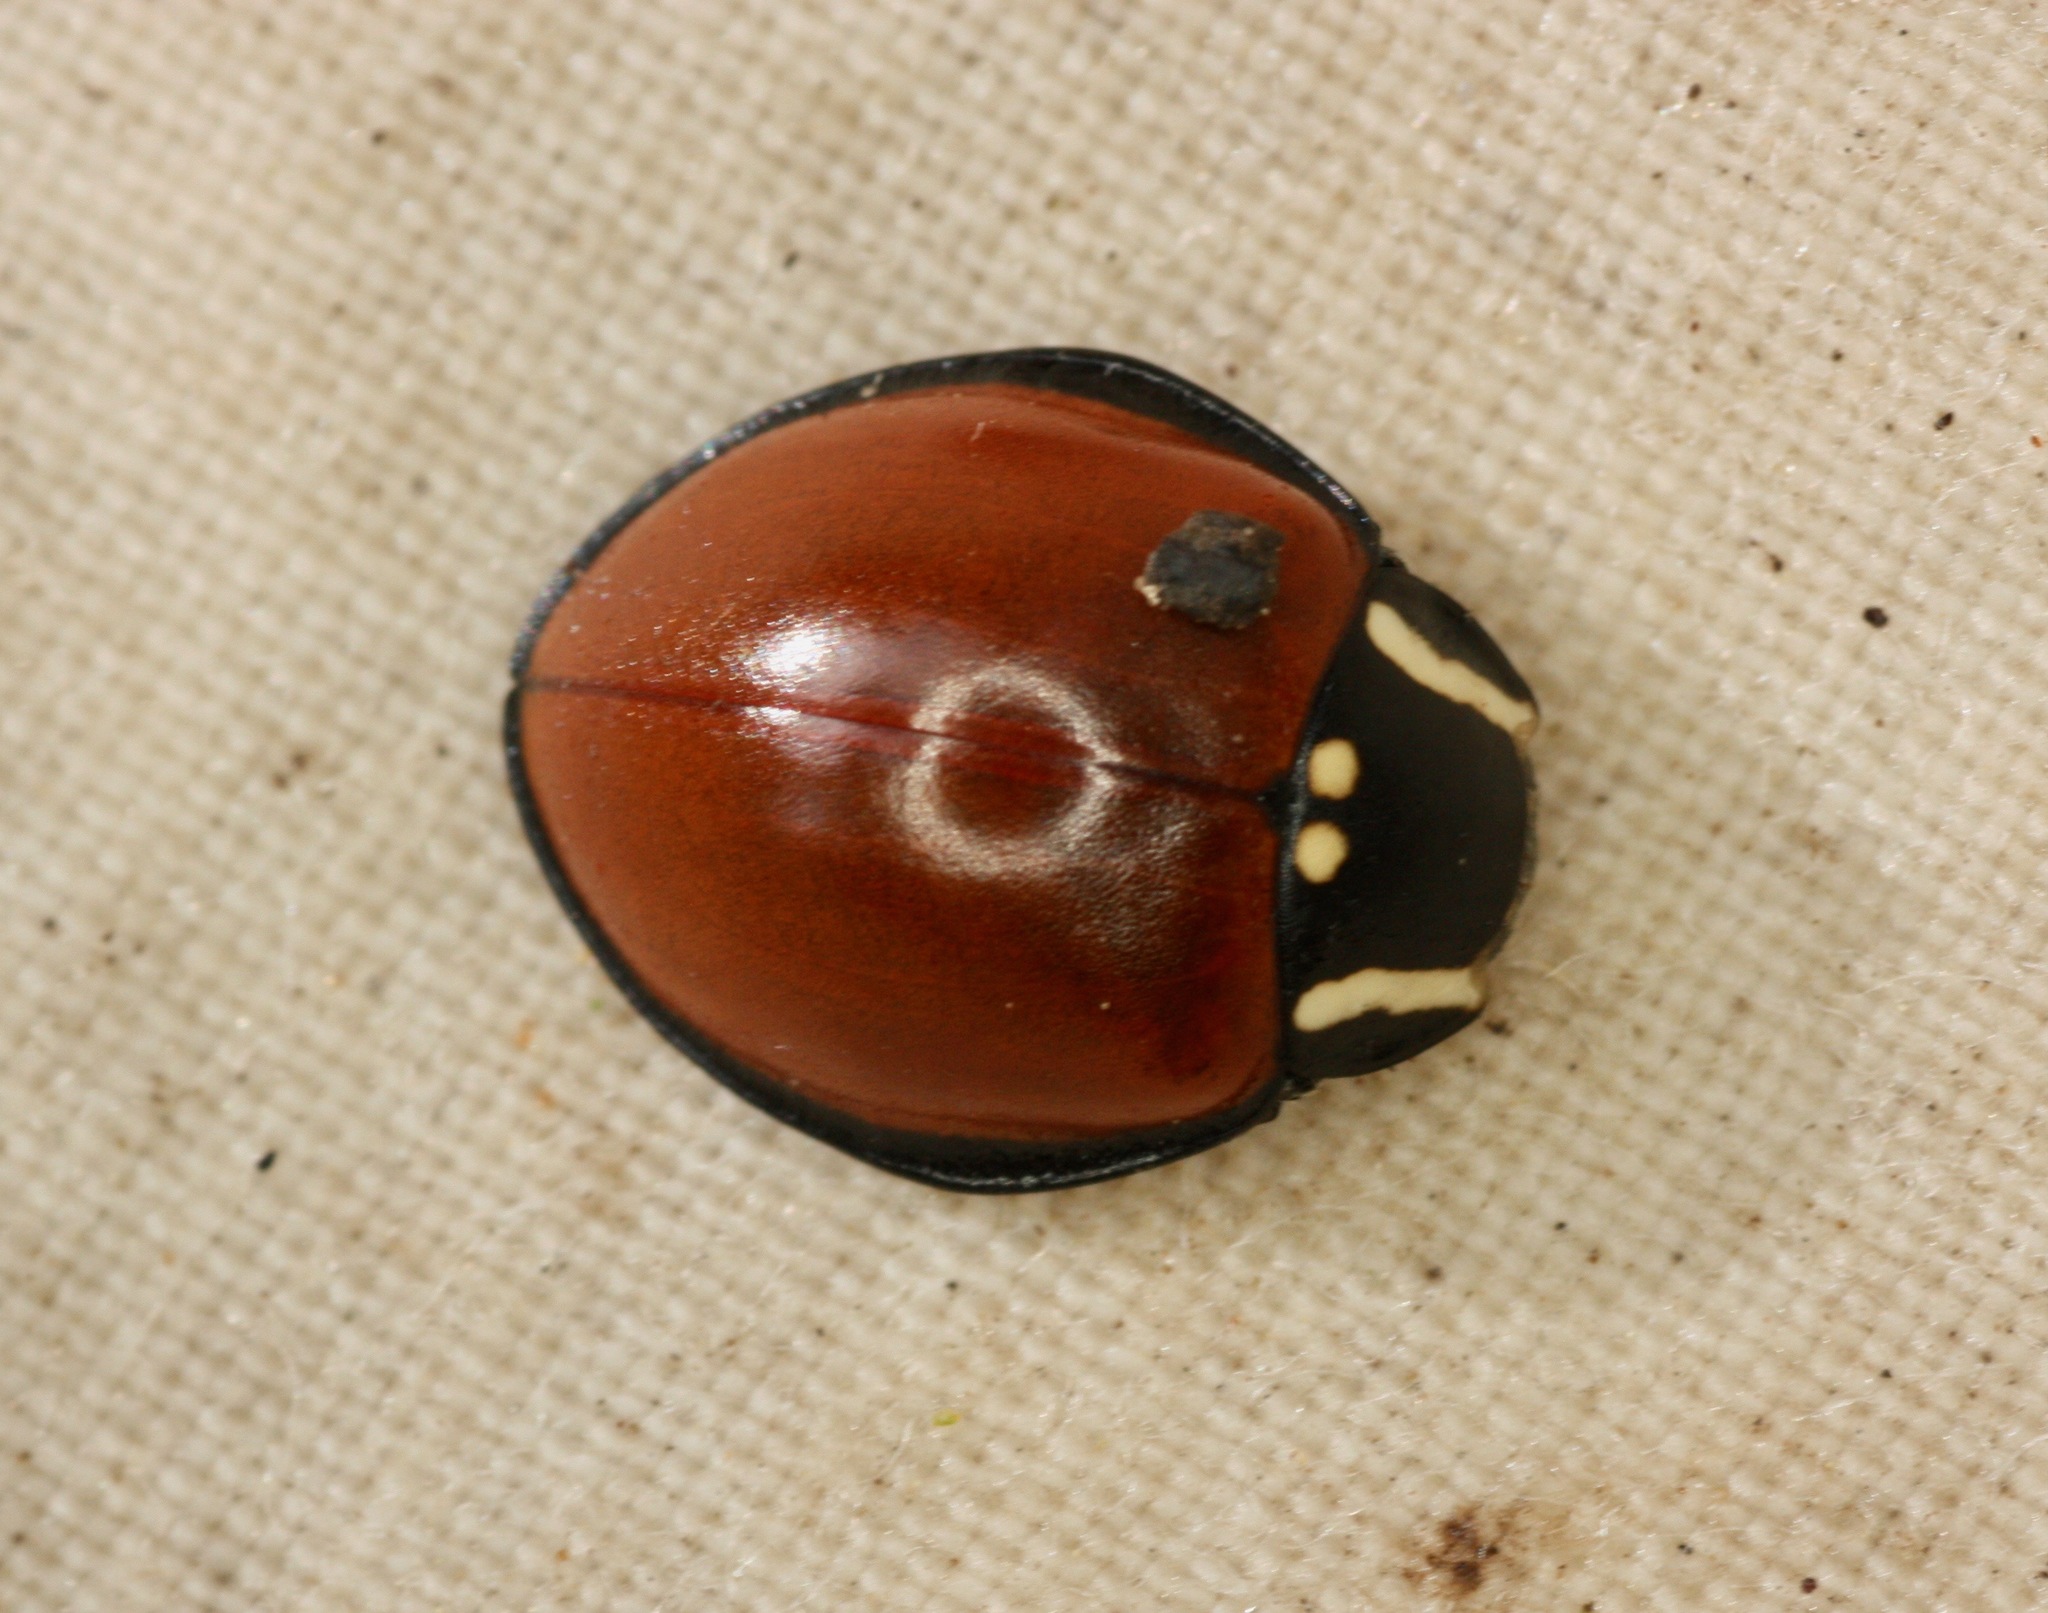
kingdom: Animalia
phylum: Arthropoda
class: Insecta
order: Coleoptera
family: Coccinellidae
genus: Anatis
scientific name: Anatis lecontei
